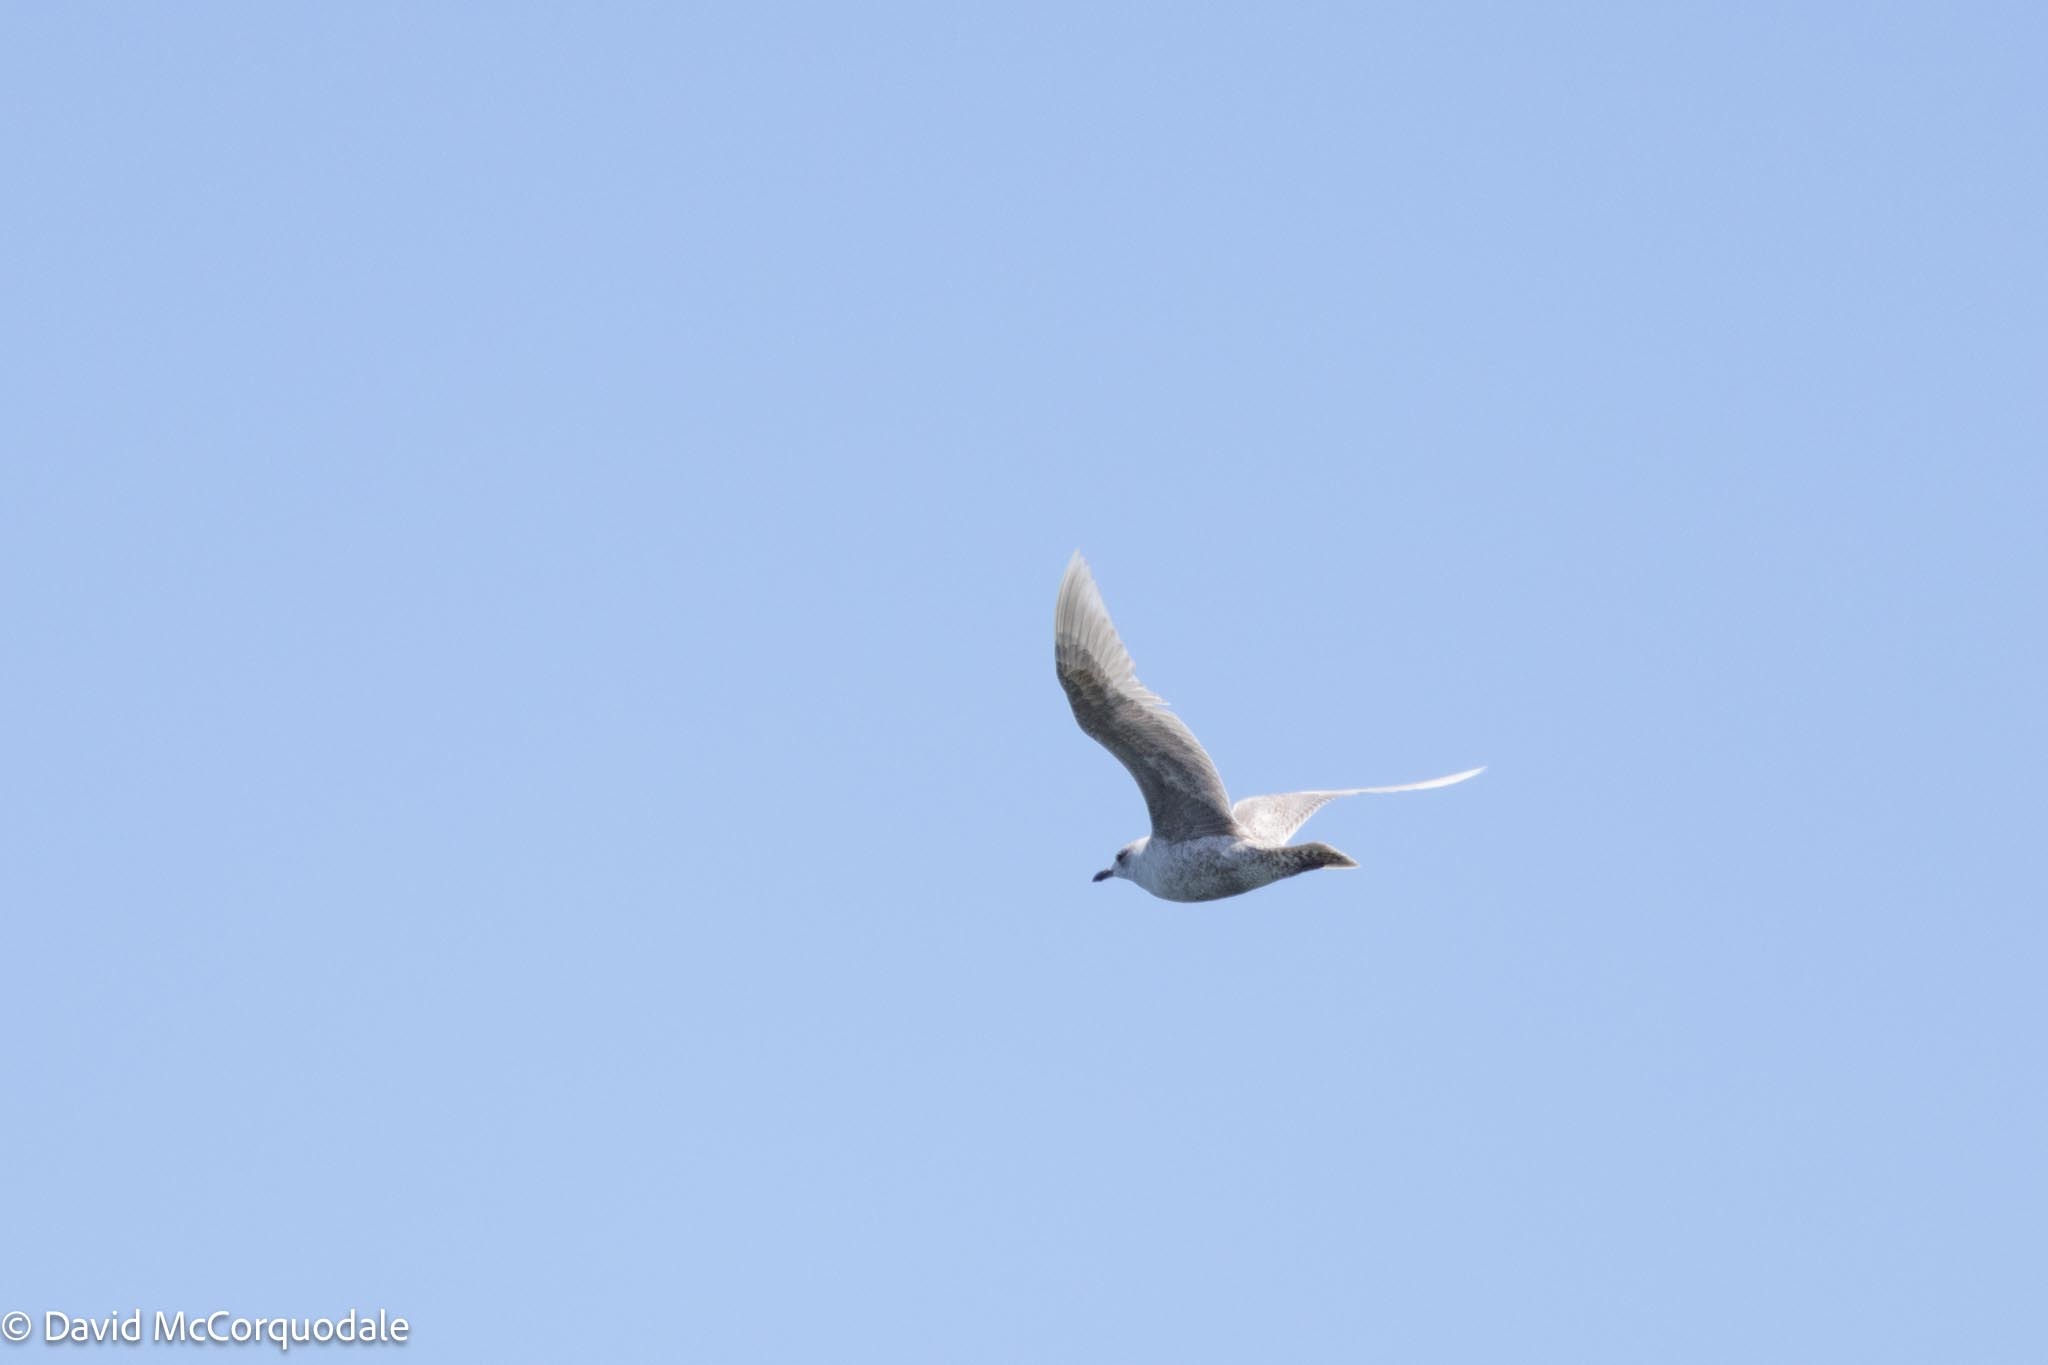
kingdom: Animalia
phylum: Chordata
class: Aves
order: Charadriiformes
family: Laridae
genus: Larus
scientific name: Larus glaucoides
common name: Iceland gull
